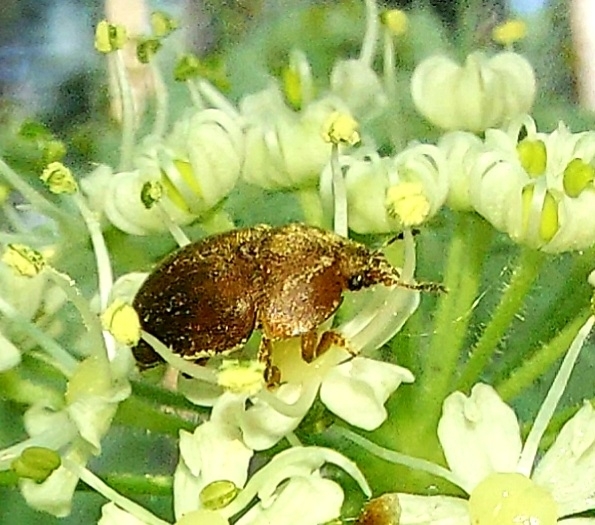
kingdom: Animalia
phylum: Arthropoda
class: Insecta
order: Coleoptera
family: Nitidulidae
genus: Cychramus
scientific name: Cychramus luteus
